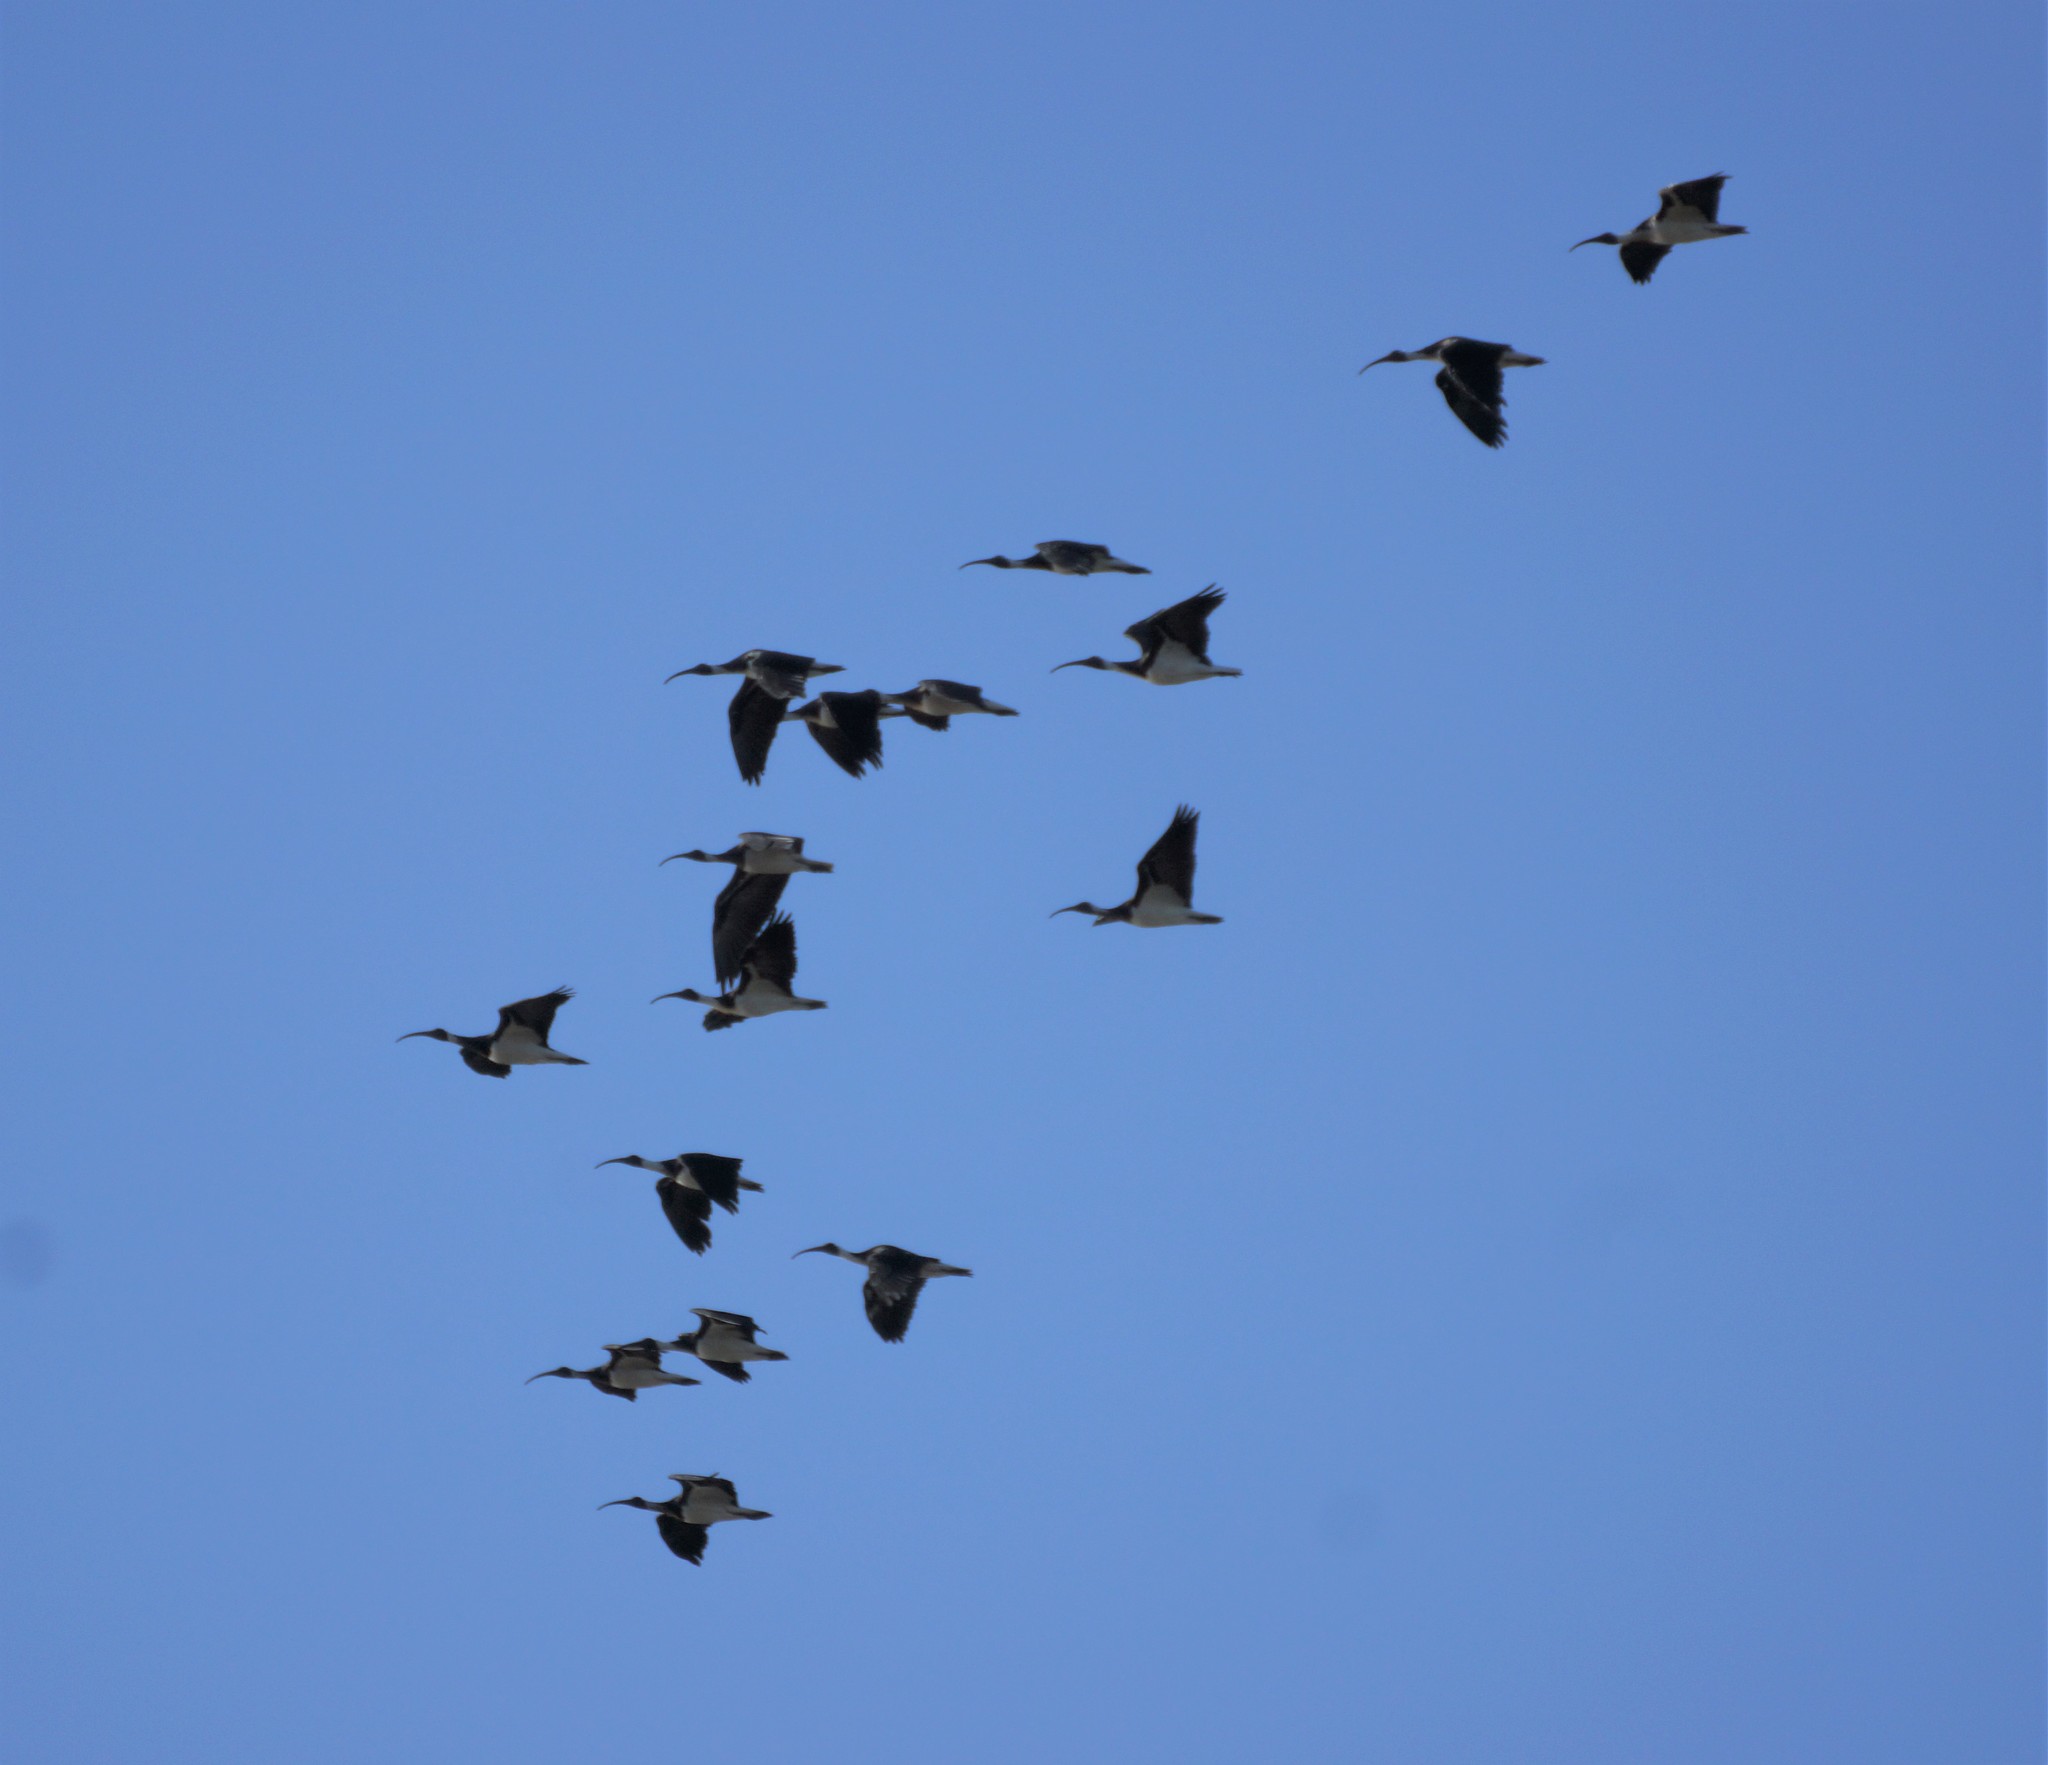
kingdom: Animalia
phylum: Chordata
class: Aves
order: Pelecaniformes
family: Threskiornithidae
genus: Threskiornis
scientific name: Threskiornis spinicollis
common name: Straw-necked ibis
